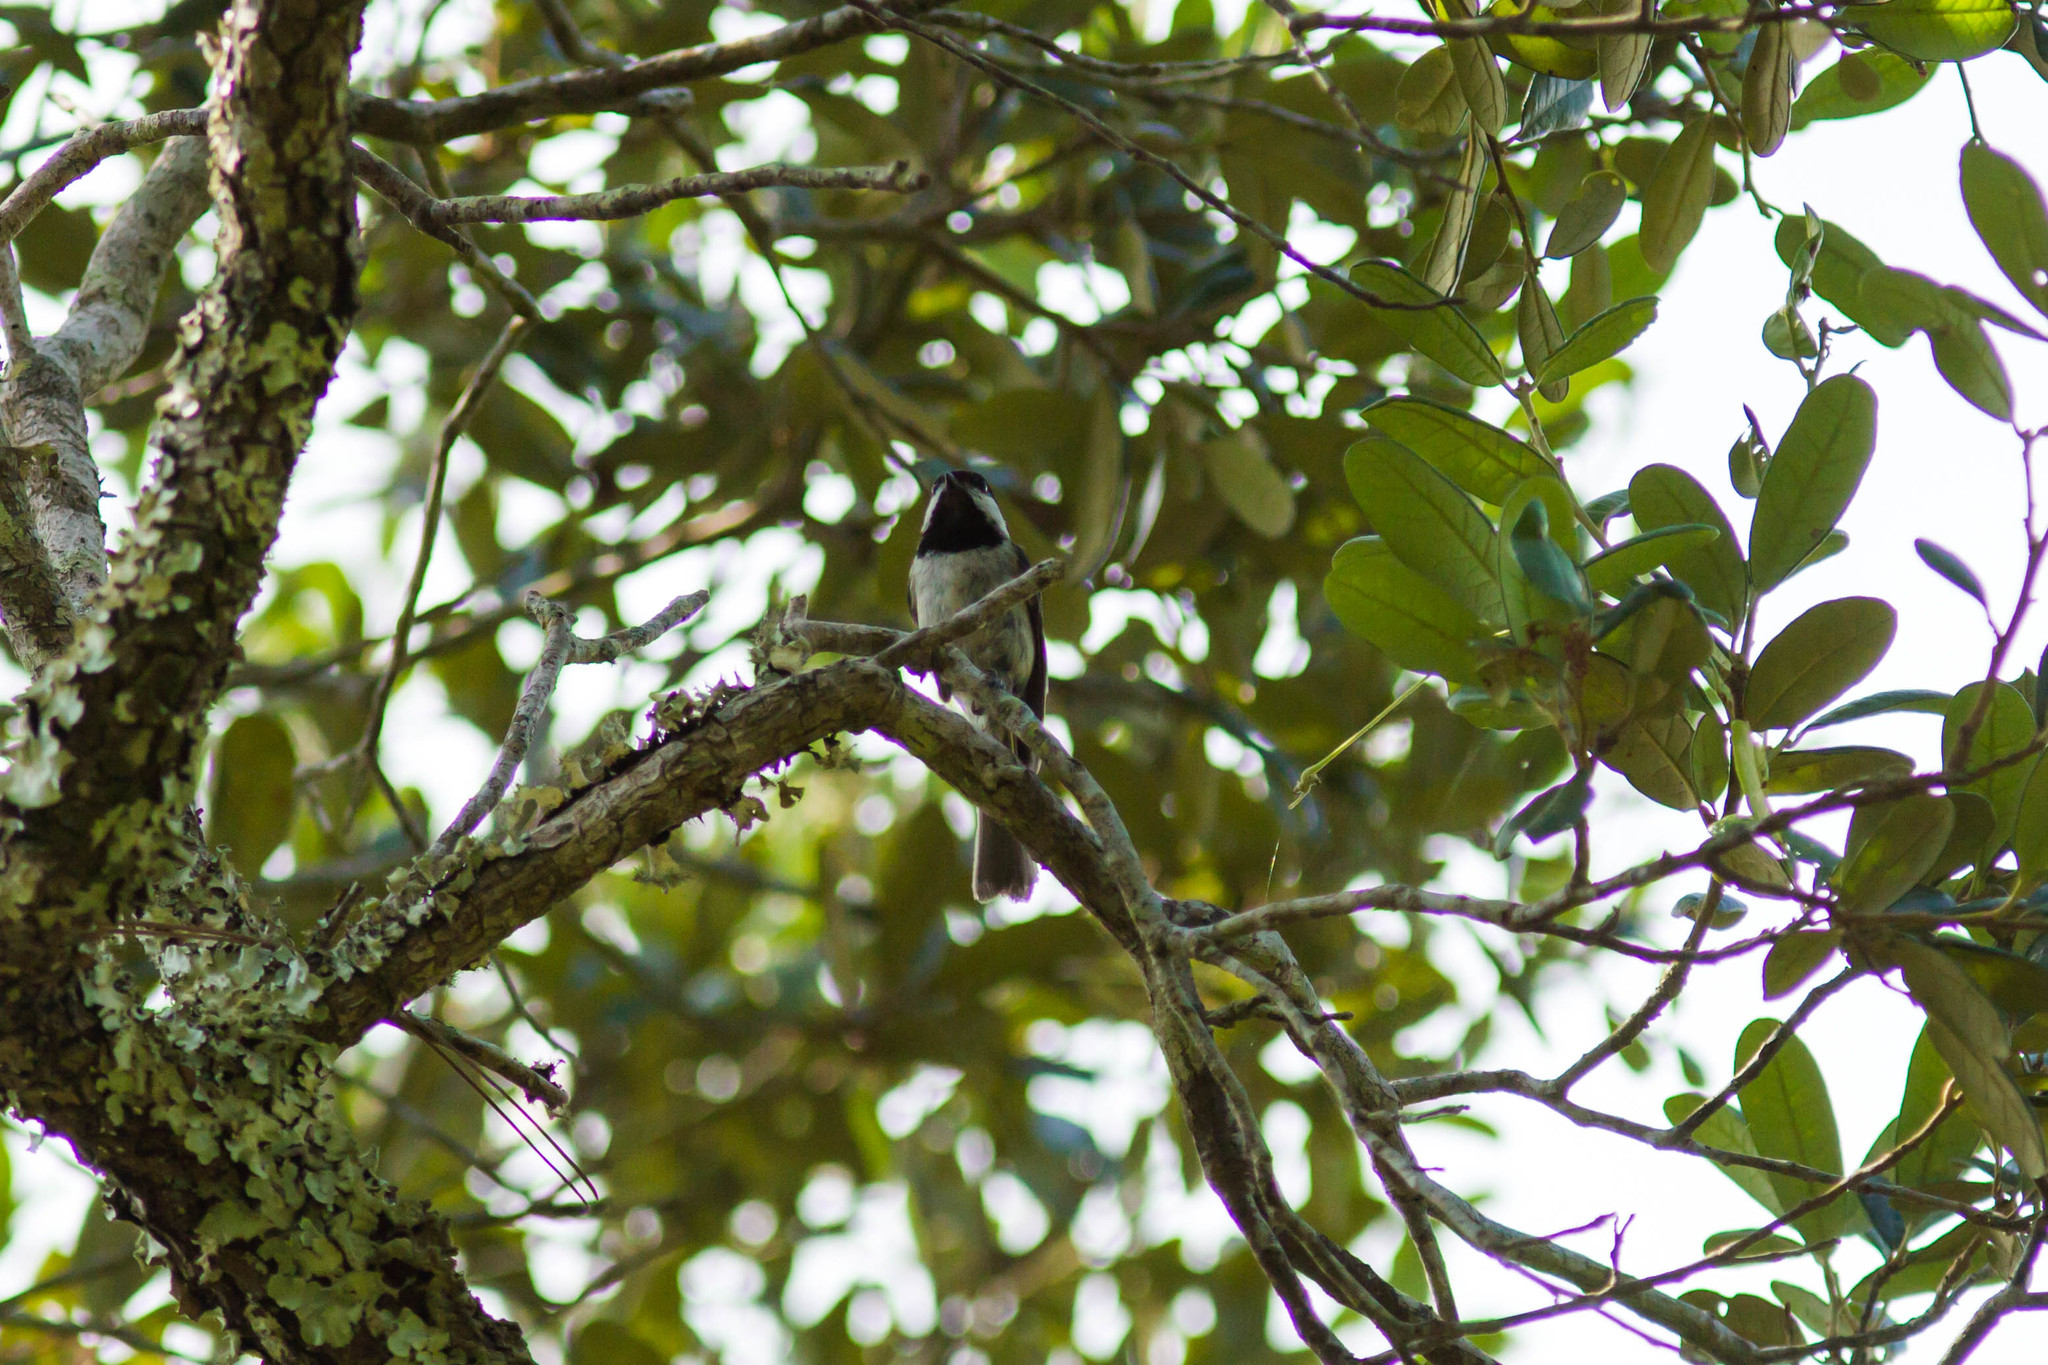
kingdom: Animalia
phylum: Chordata
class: Aves
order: Passeriformes
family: Paridae
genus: Poecile
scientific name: Poecile carolinensis
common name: Carolina chickadee
